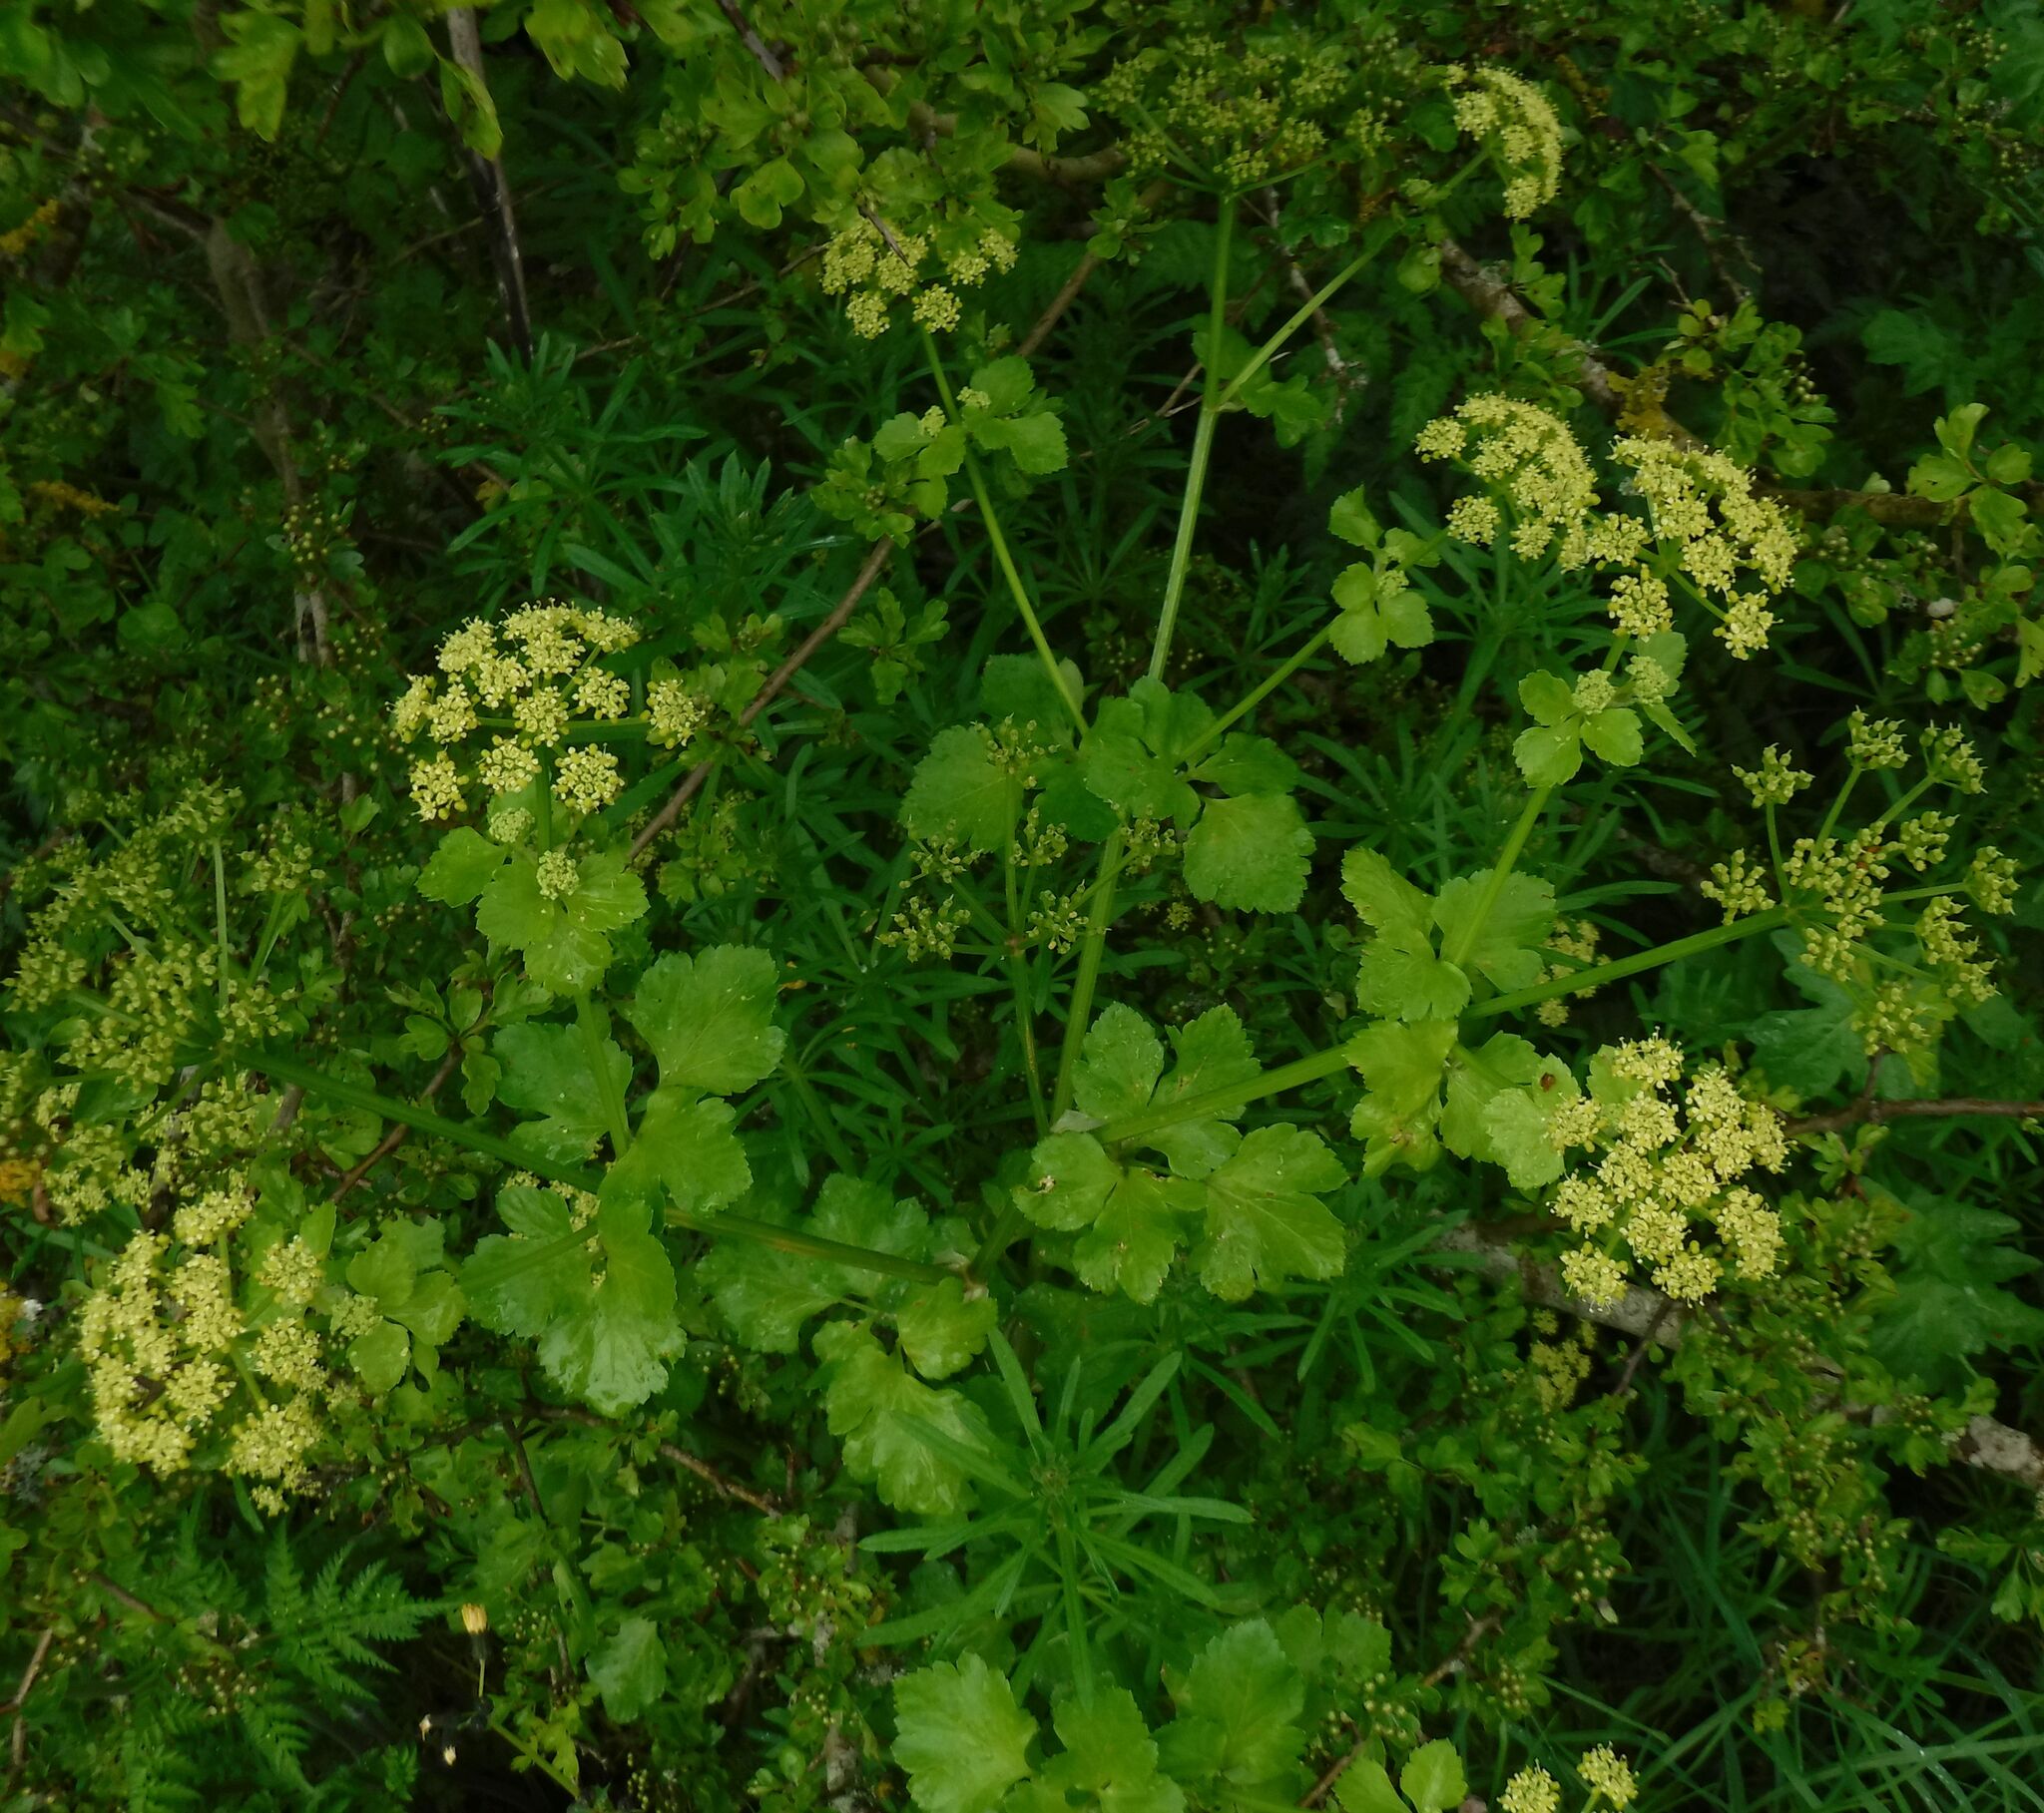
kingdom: Plantae
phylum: Tracheophyta
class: Magnoliopsida
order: Apiales
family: Apiaceae
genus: Smyrnium
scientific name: Smyrnium olusatrum
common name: Alexanders
